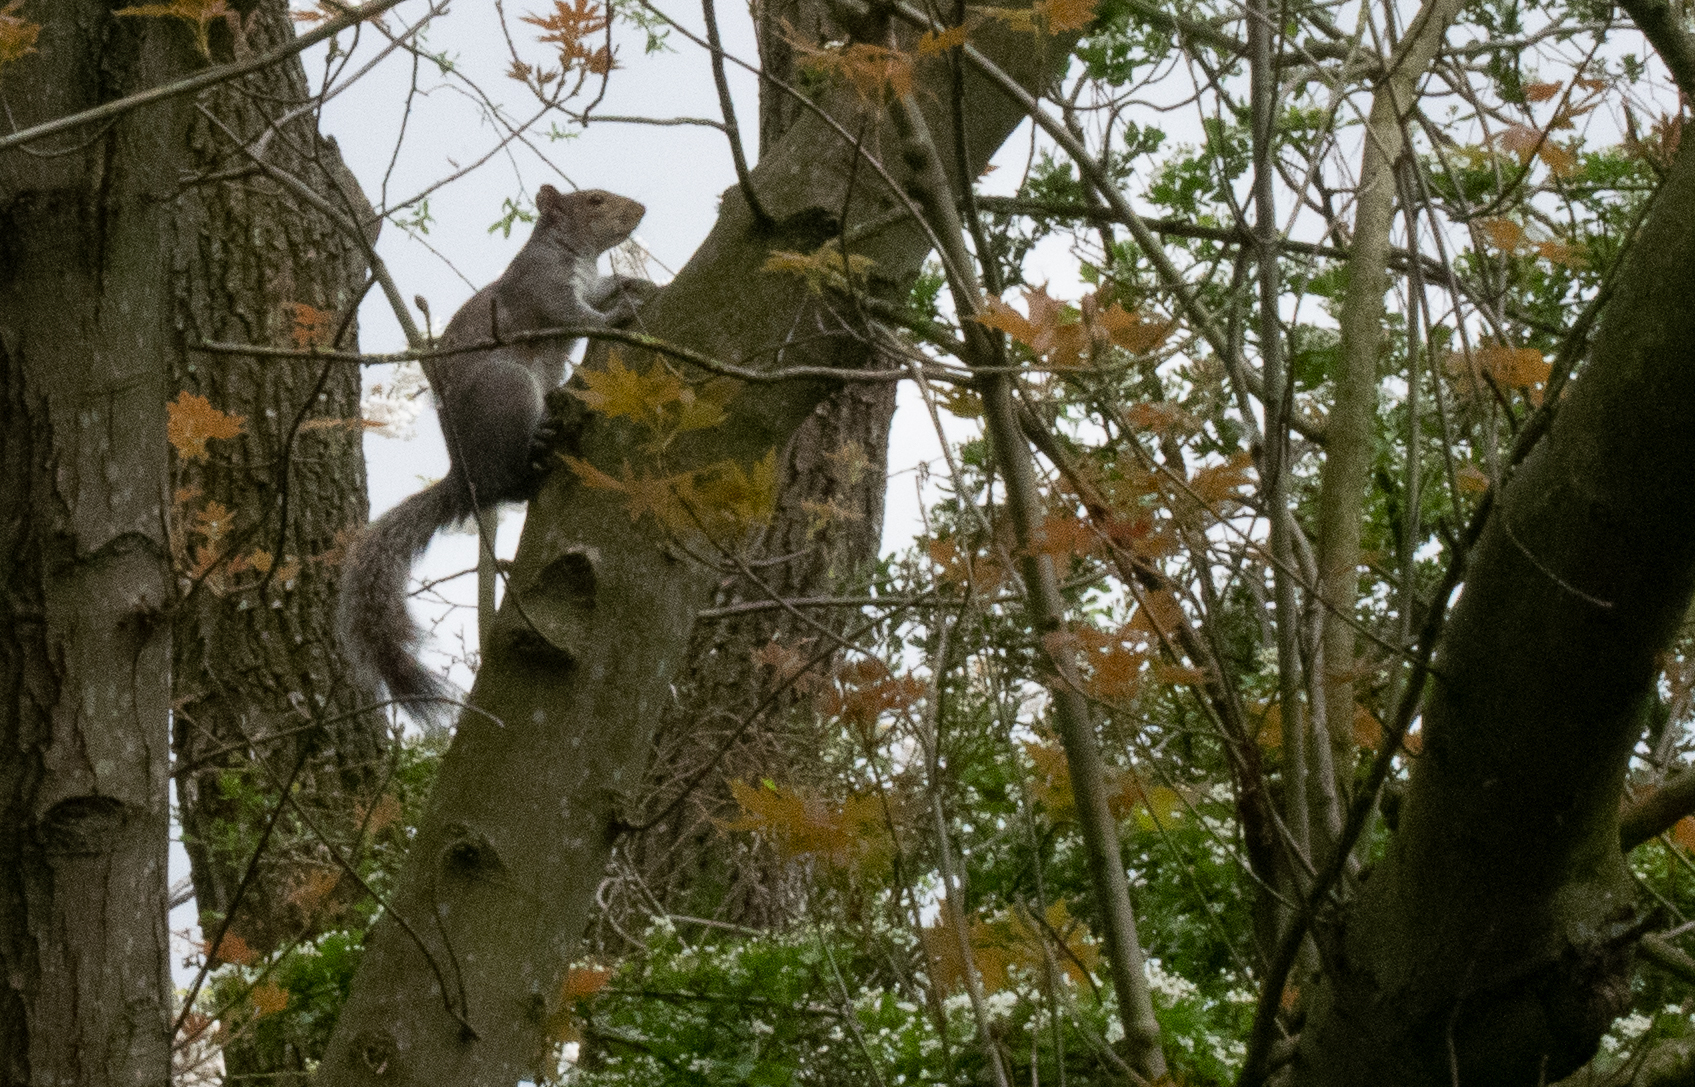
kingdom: Animalia
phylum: Chordata
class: Mammalia
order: Rodentia
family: Sciuridae
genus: Sciurus
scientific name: Sciurus carolinensis
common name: Eastern gray squirrel
